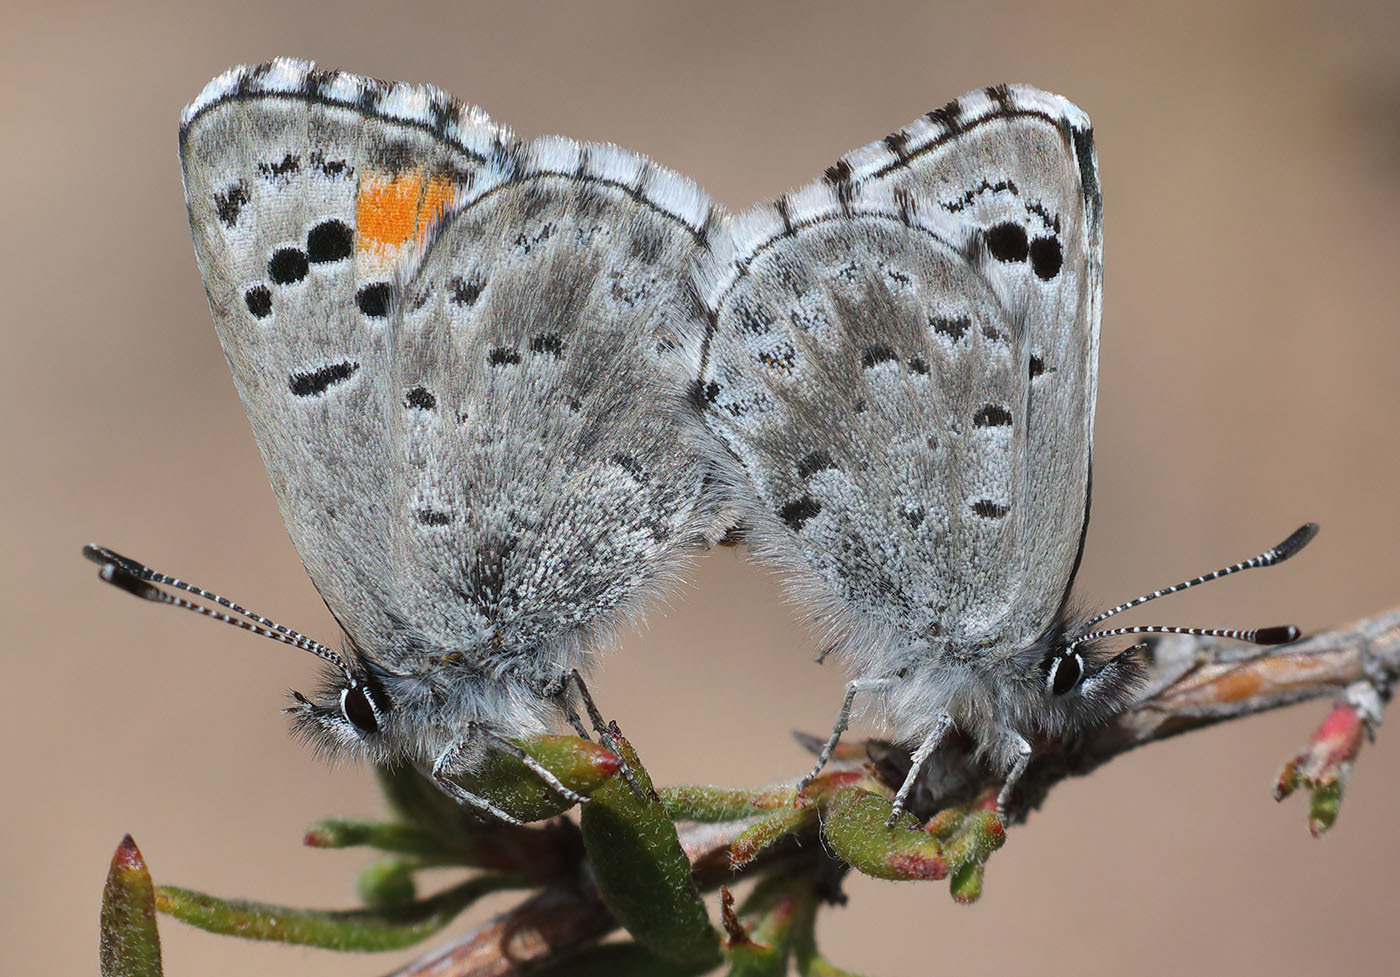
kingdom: Animalia
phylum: Arthropoda
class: Insecta
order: Lepidoptera
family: Lycaenidae
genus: Philotes
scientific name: Philotes sonorensis
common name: Sonoran blue
